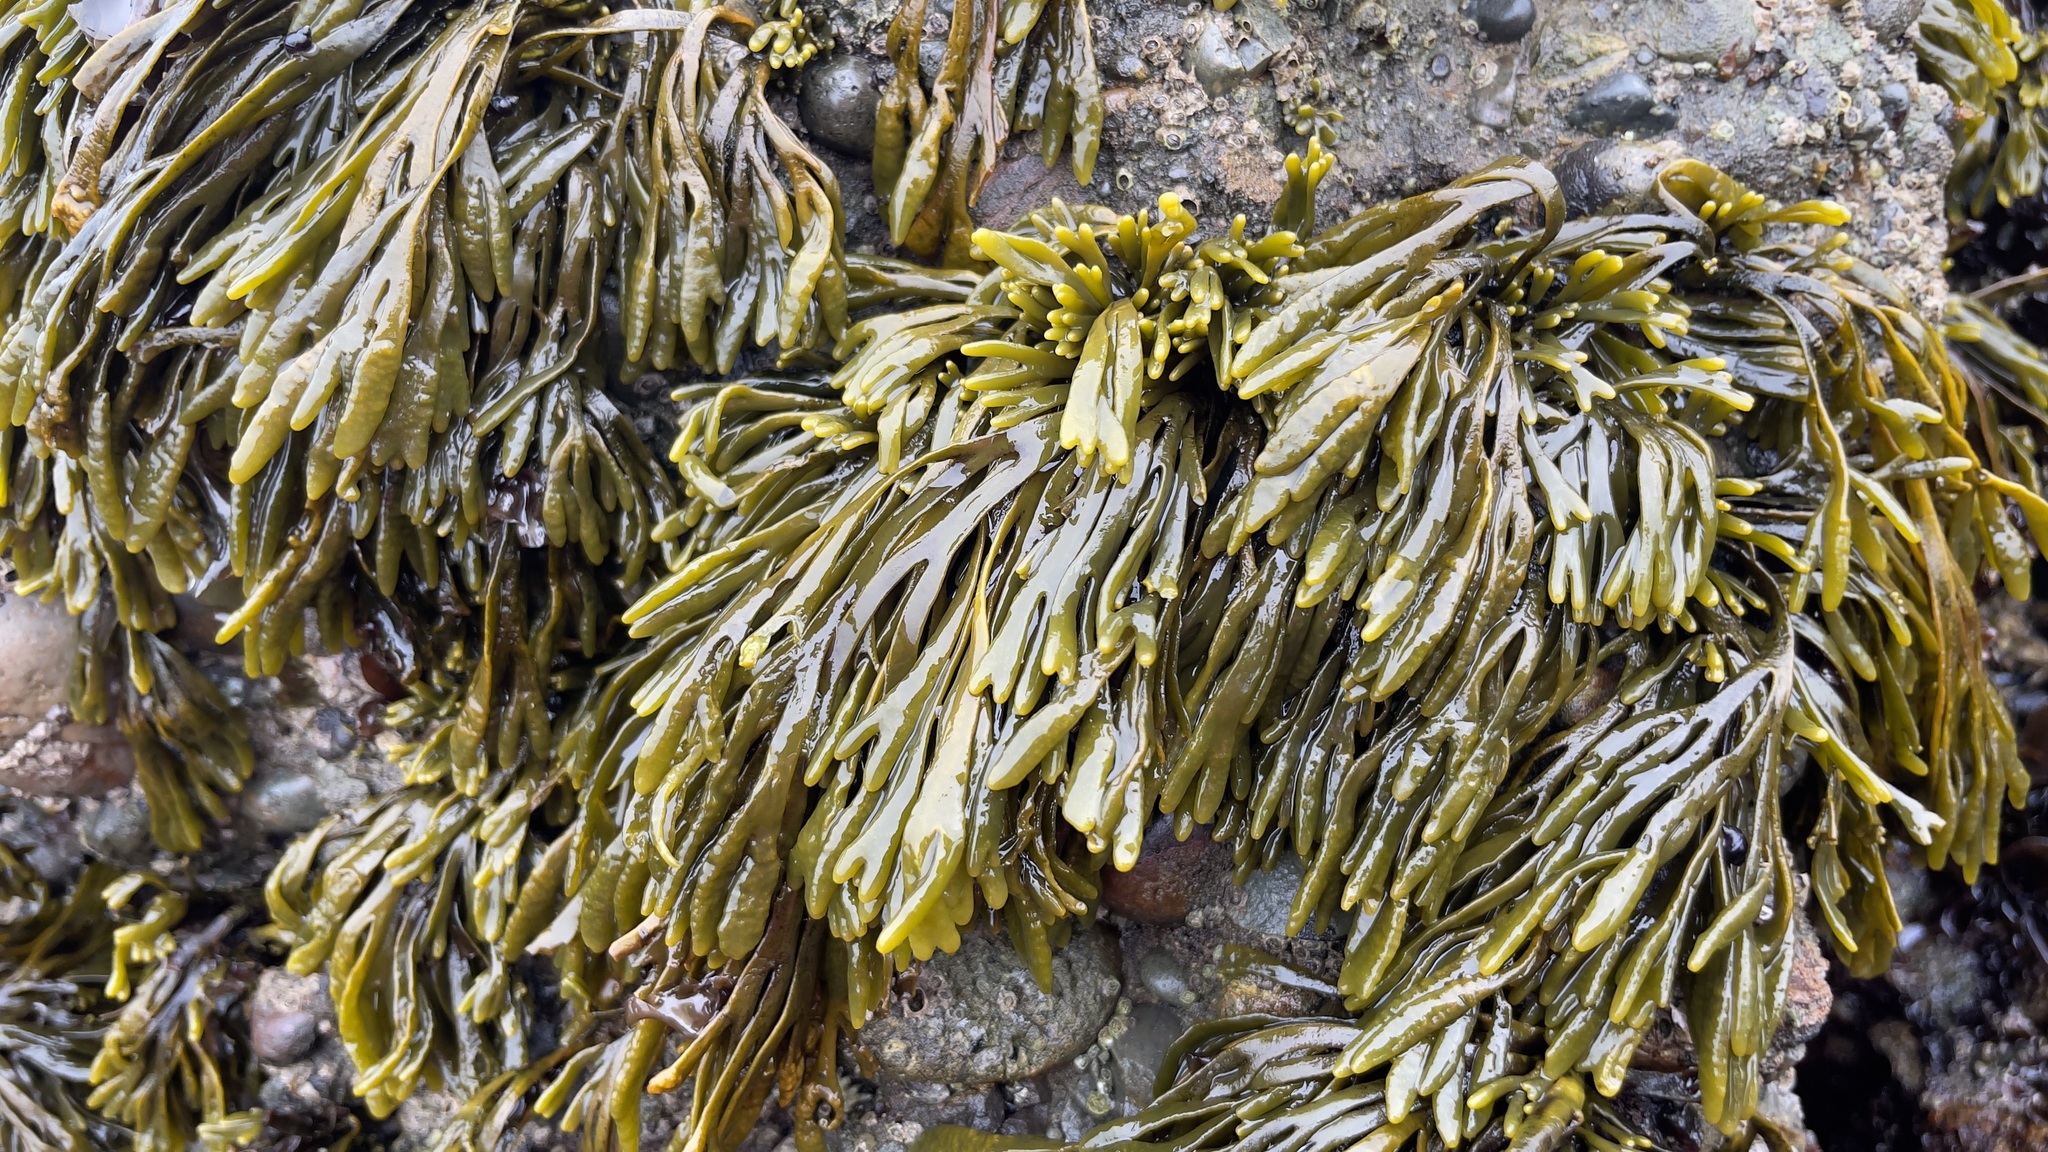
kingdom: Chromista
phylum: Ochrophyta
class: Phaeophyceae
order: Fucales
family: Fucaceae
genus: Pelvetiopsis
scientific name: Pelvetiopsis limitata
